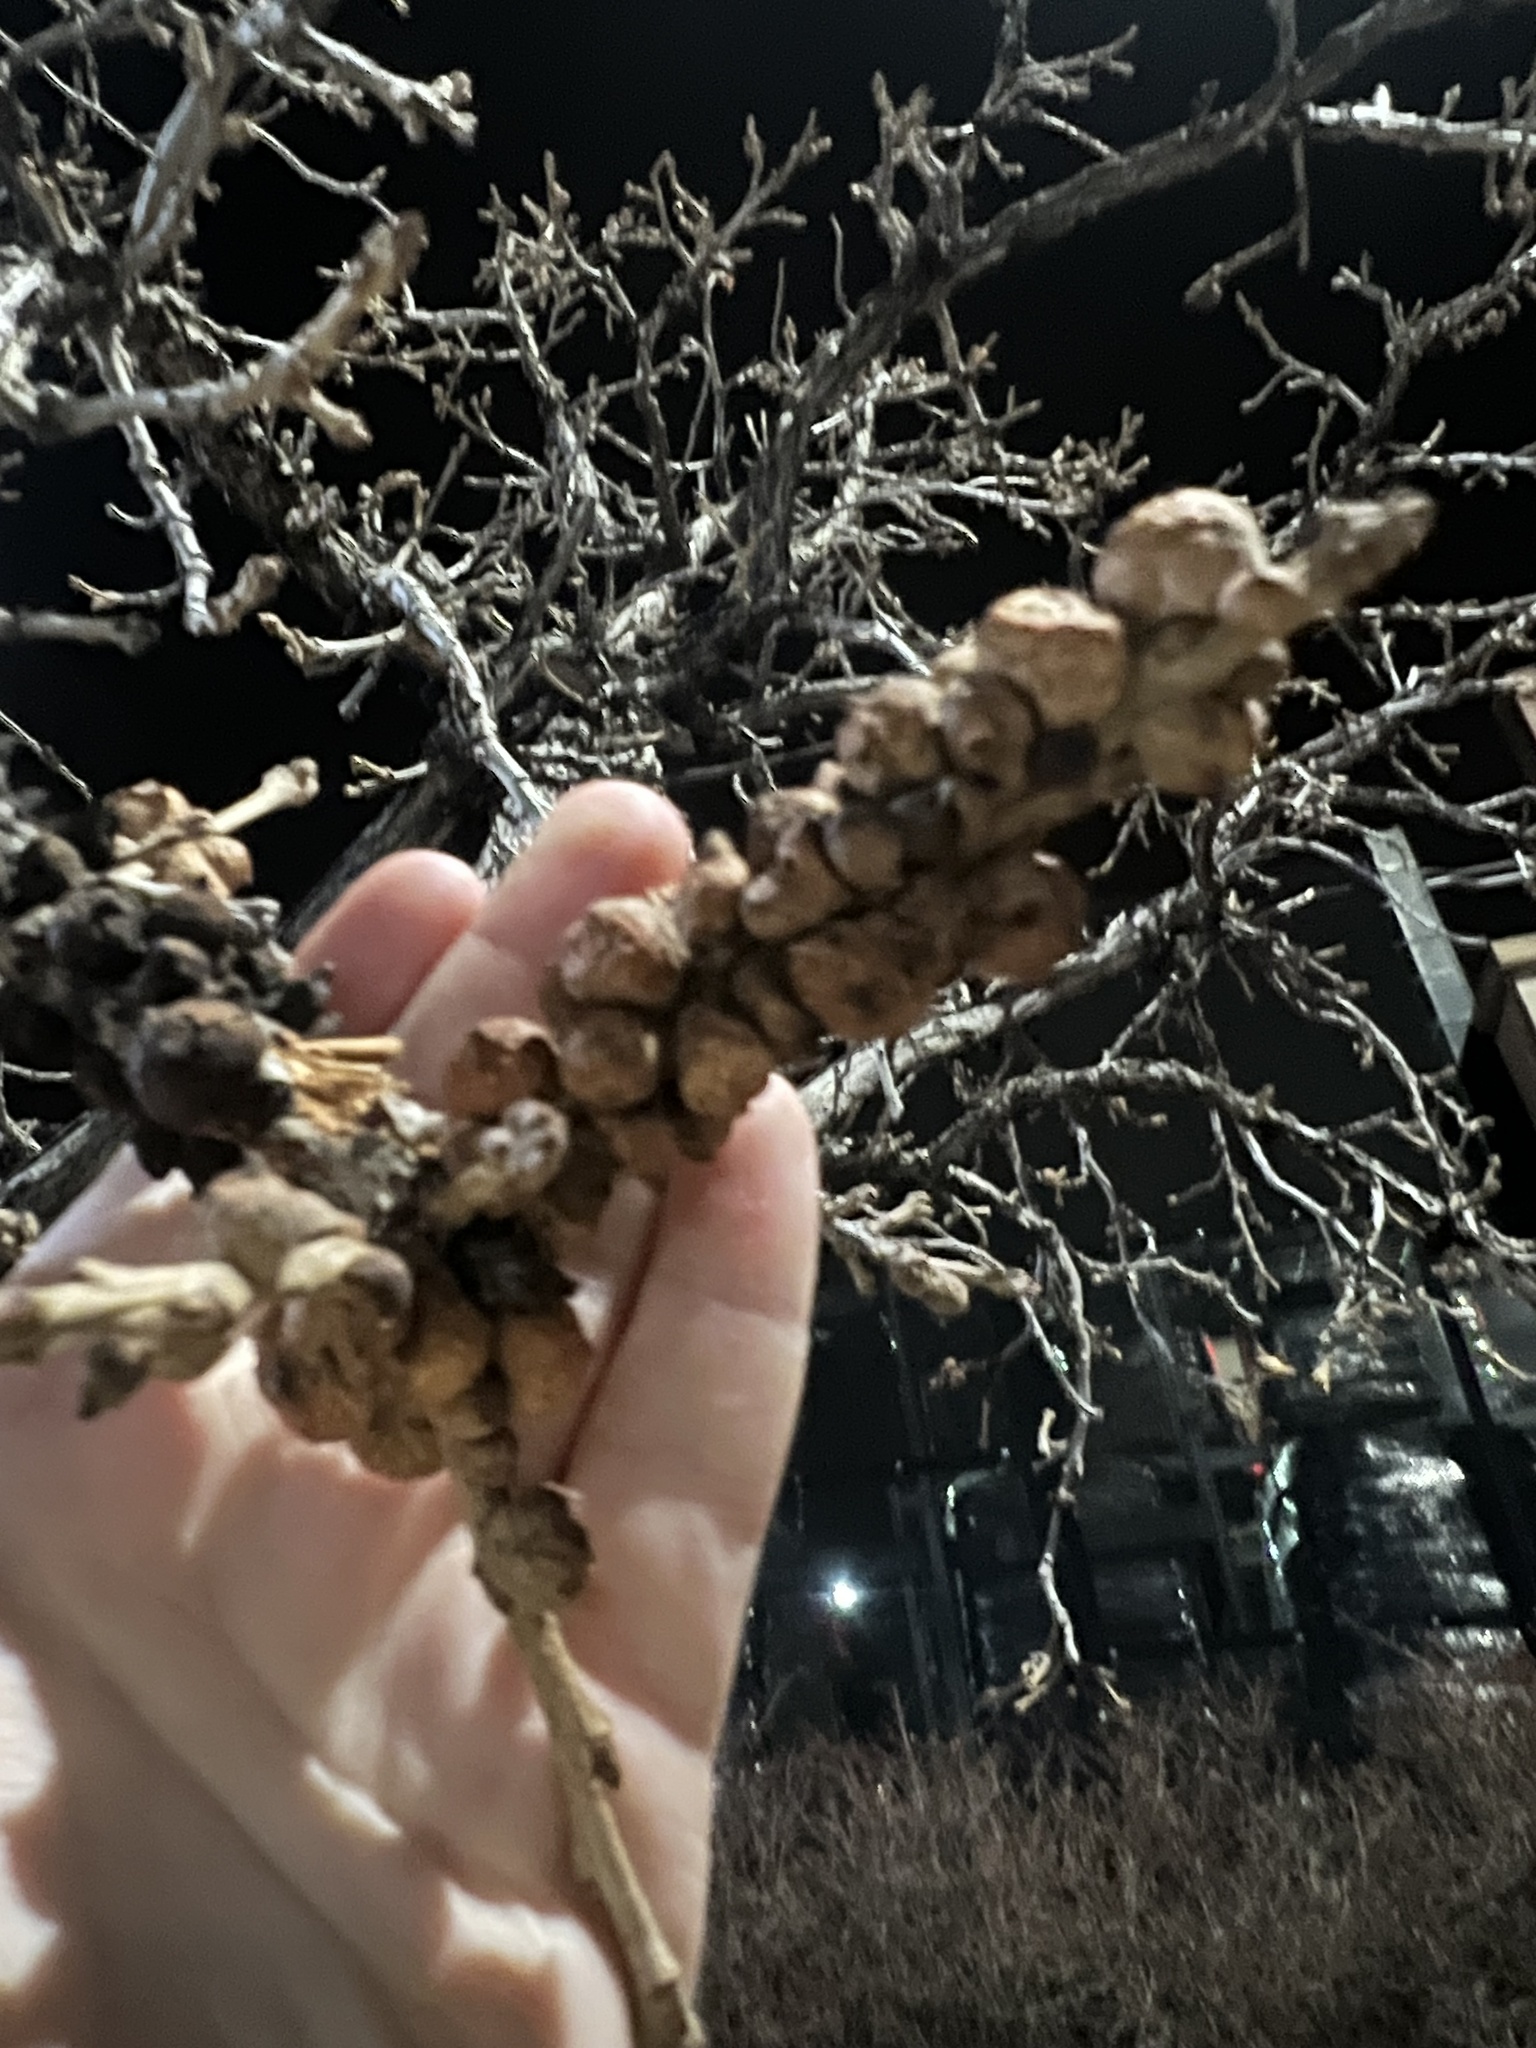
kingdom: Animalia
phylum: Arthropoda
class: Insecta
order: Hymenoptera
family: Cynipidae
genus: Disholcaspis
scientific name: Disholcaspis
